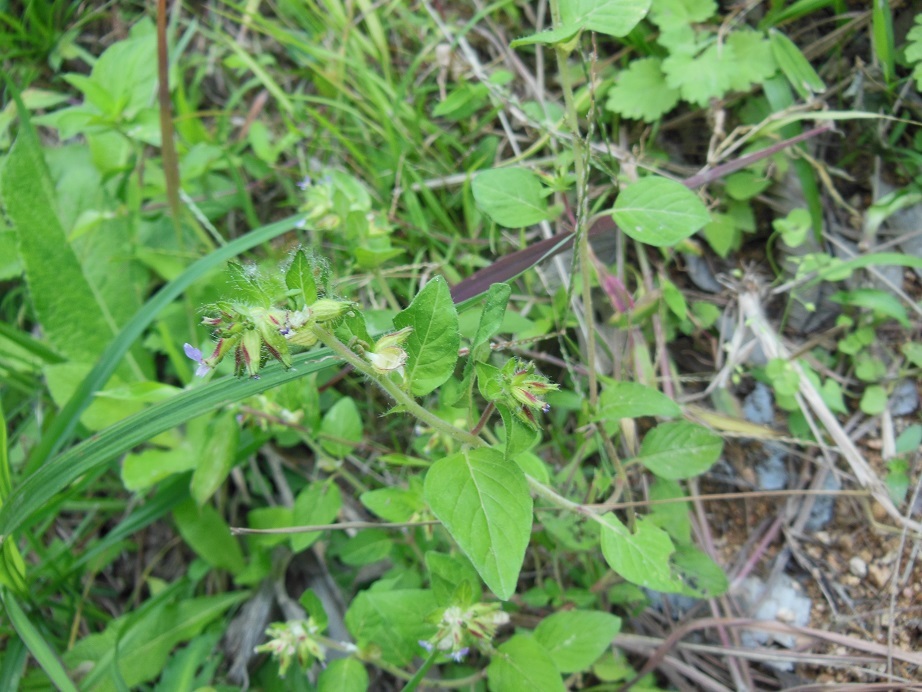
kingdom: Plantae
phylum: Tracheophyta
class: Magnoliopsida
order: Myrtales
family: Lythraceae
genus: Cuphea
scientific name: Cuphea vesiculigera
